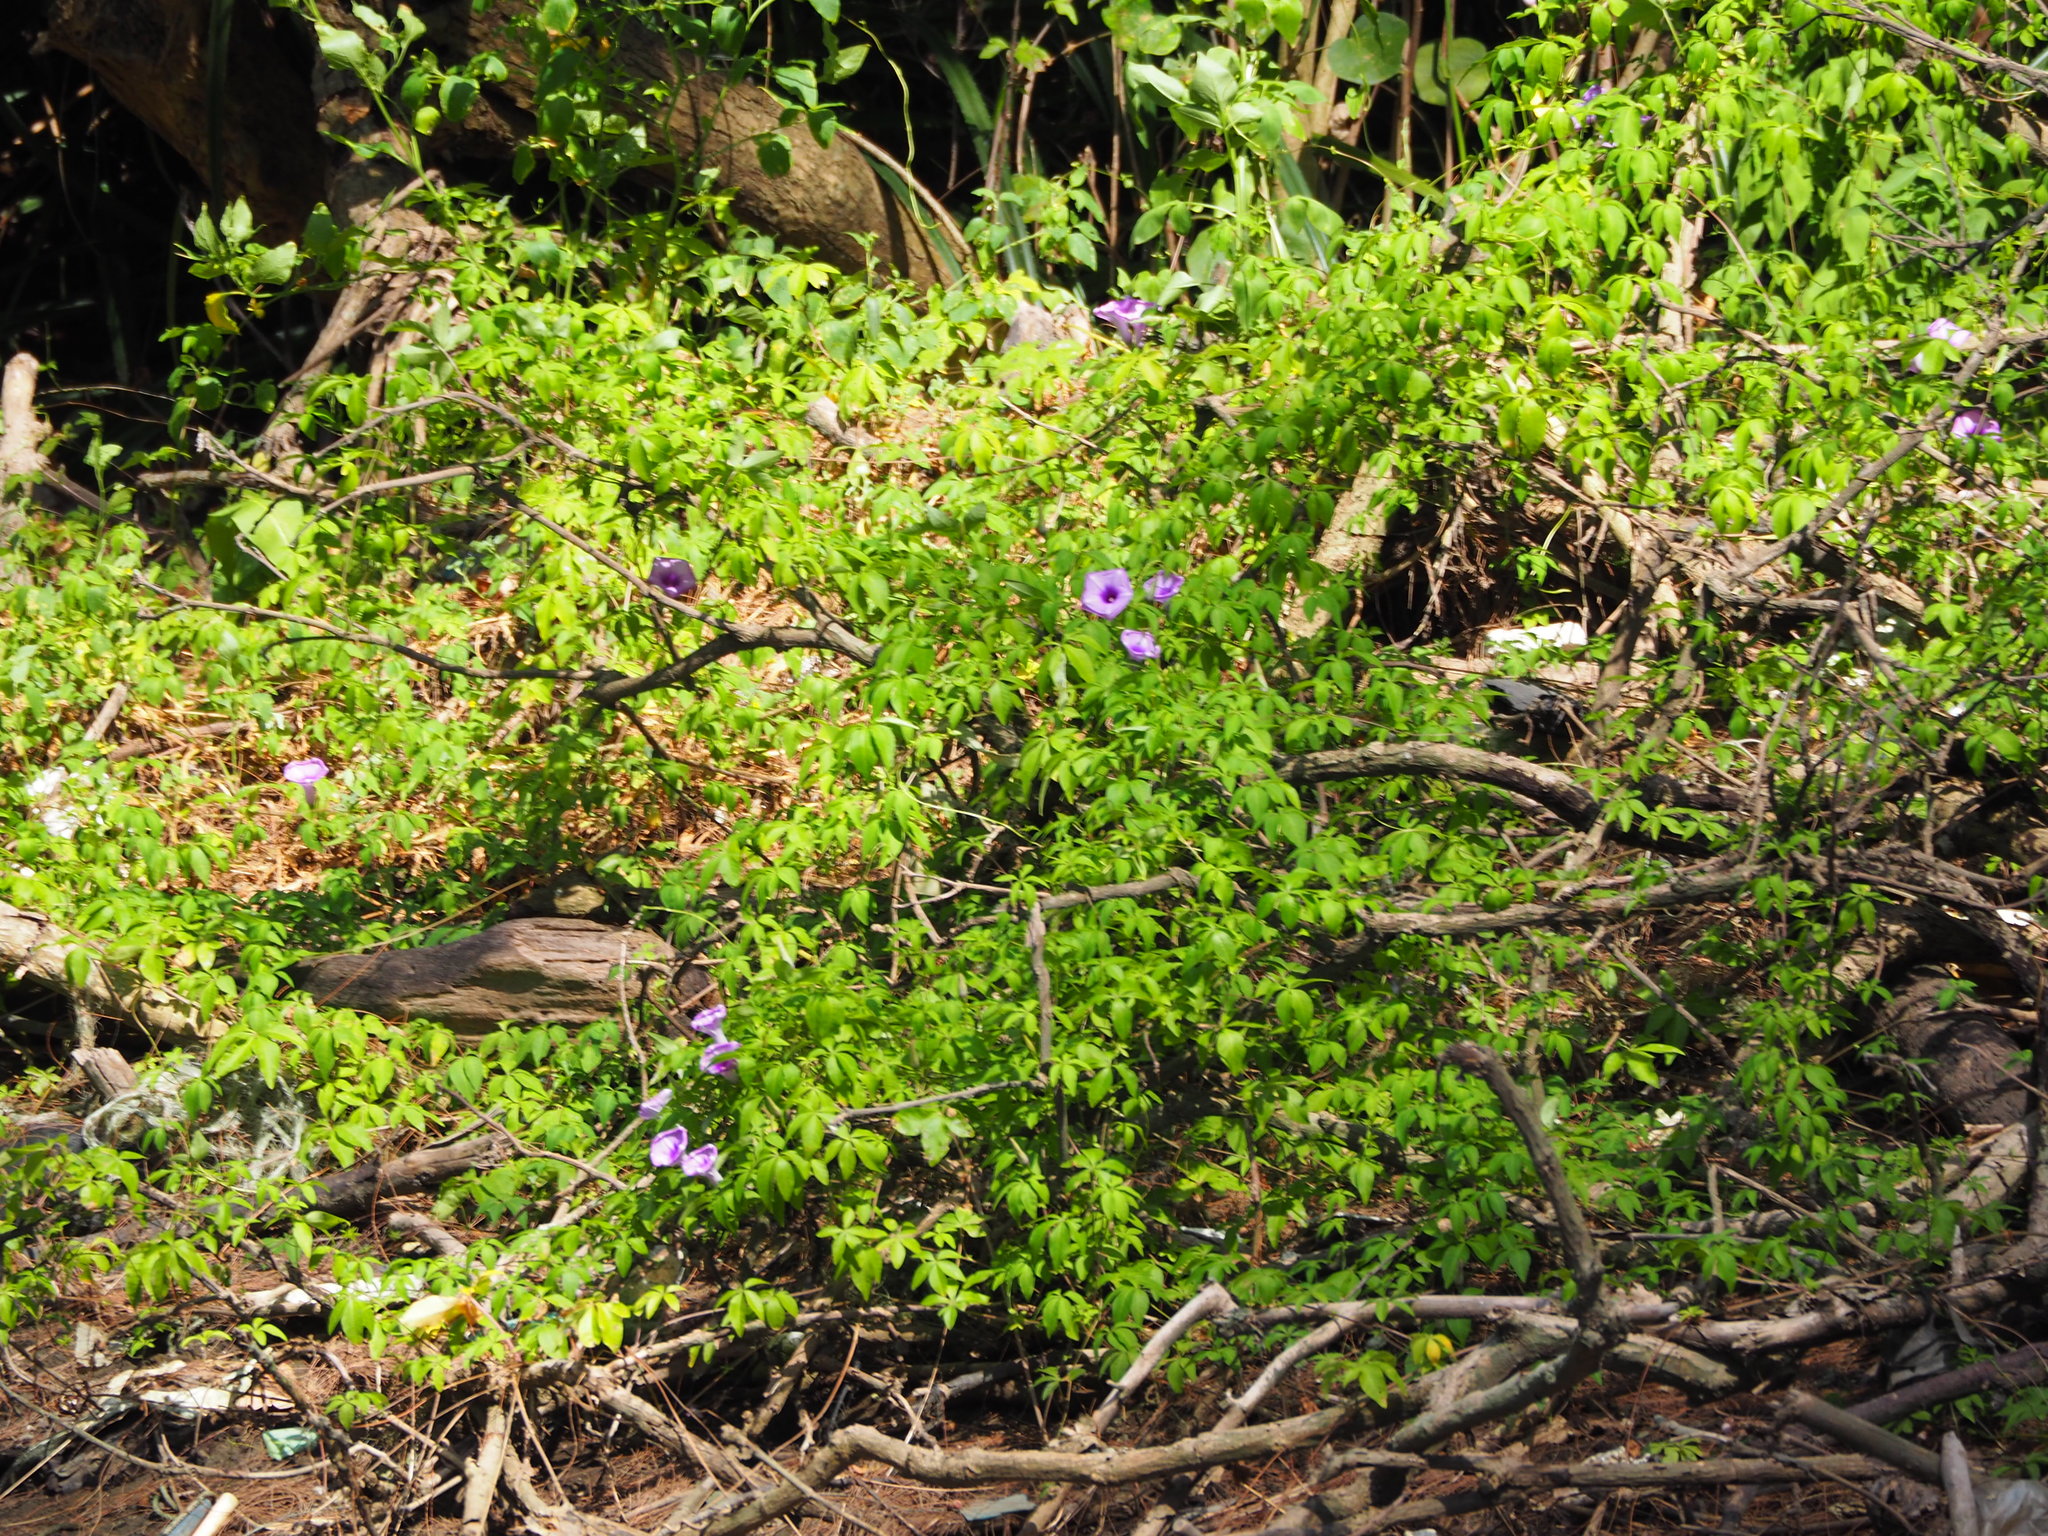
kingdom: Plantae
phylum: Tracheophyta
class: Magnoliopsida
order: Solanales
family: Convolvulaceae
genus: Ipomoea
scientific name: Ipomoea cairica
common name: Mile a minute vine
